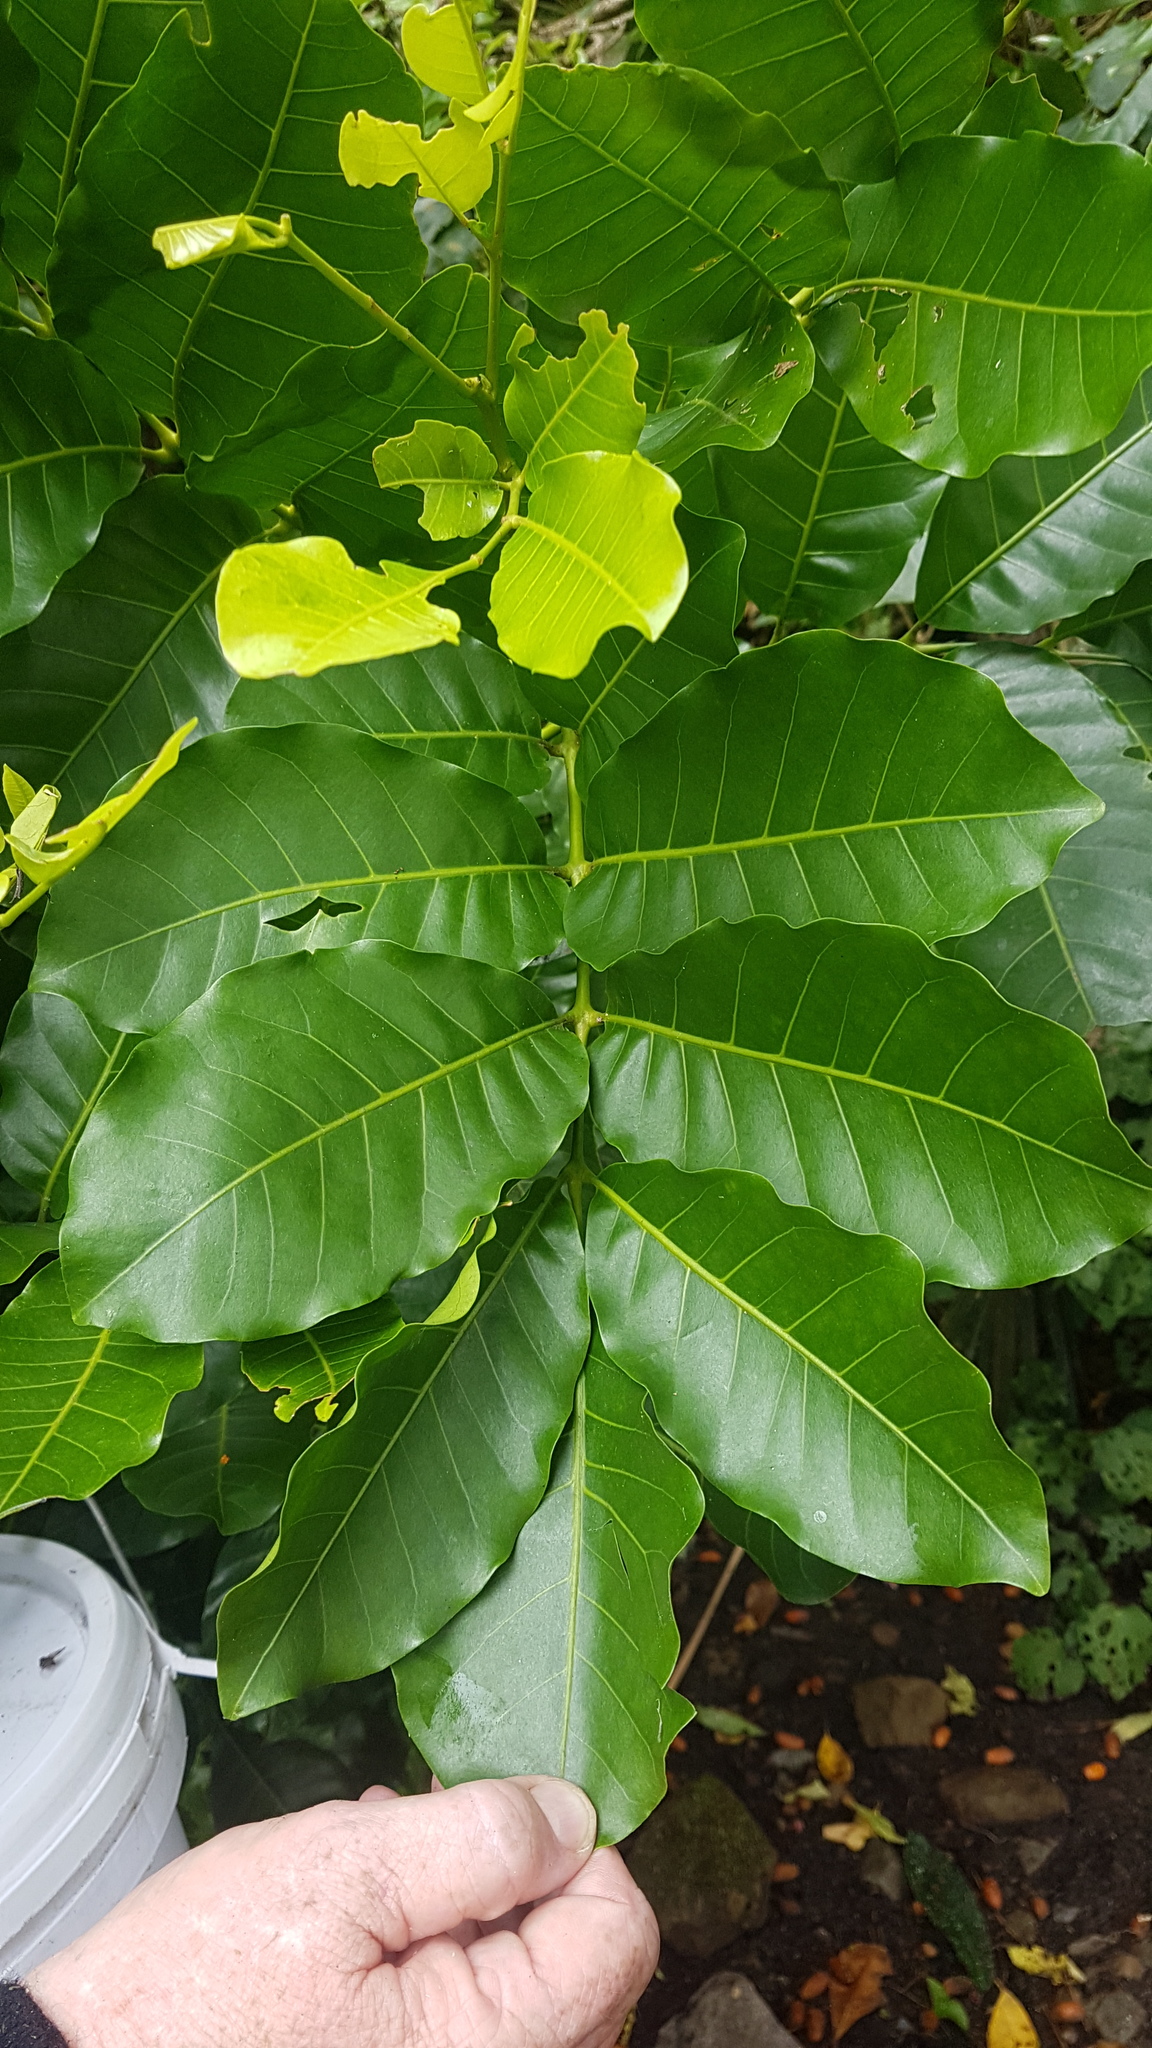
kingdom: Plantae
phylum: Tracheophyta
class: Magnoliopsida
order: Sapindales
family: Meliaceae
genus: Didymocheton
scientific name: Didymocheton spectabilis
